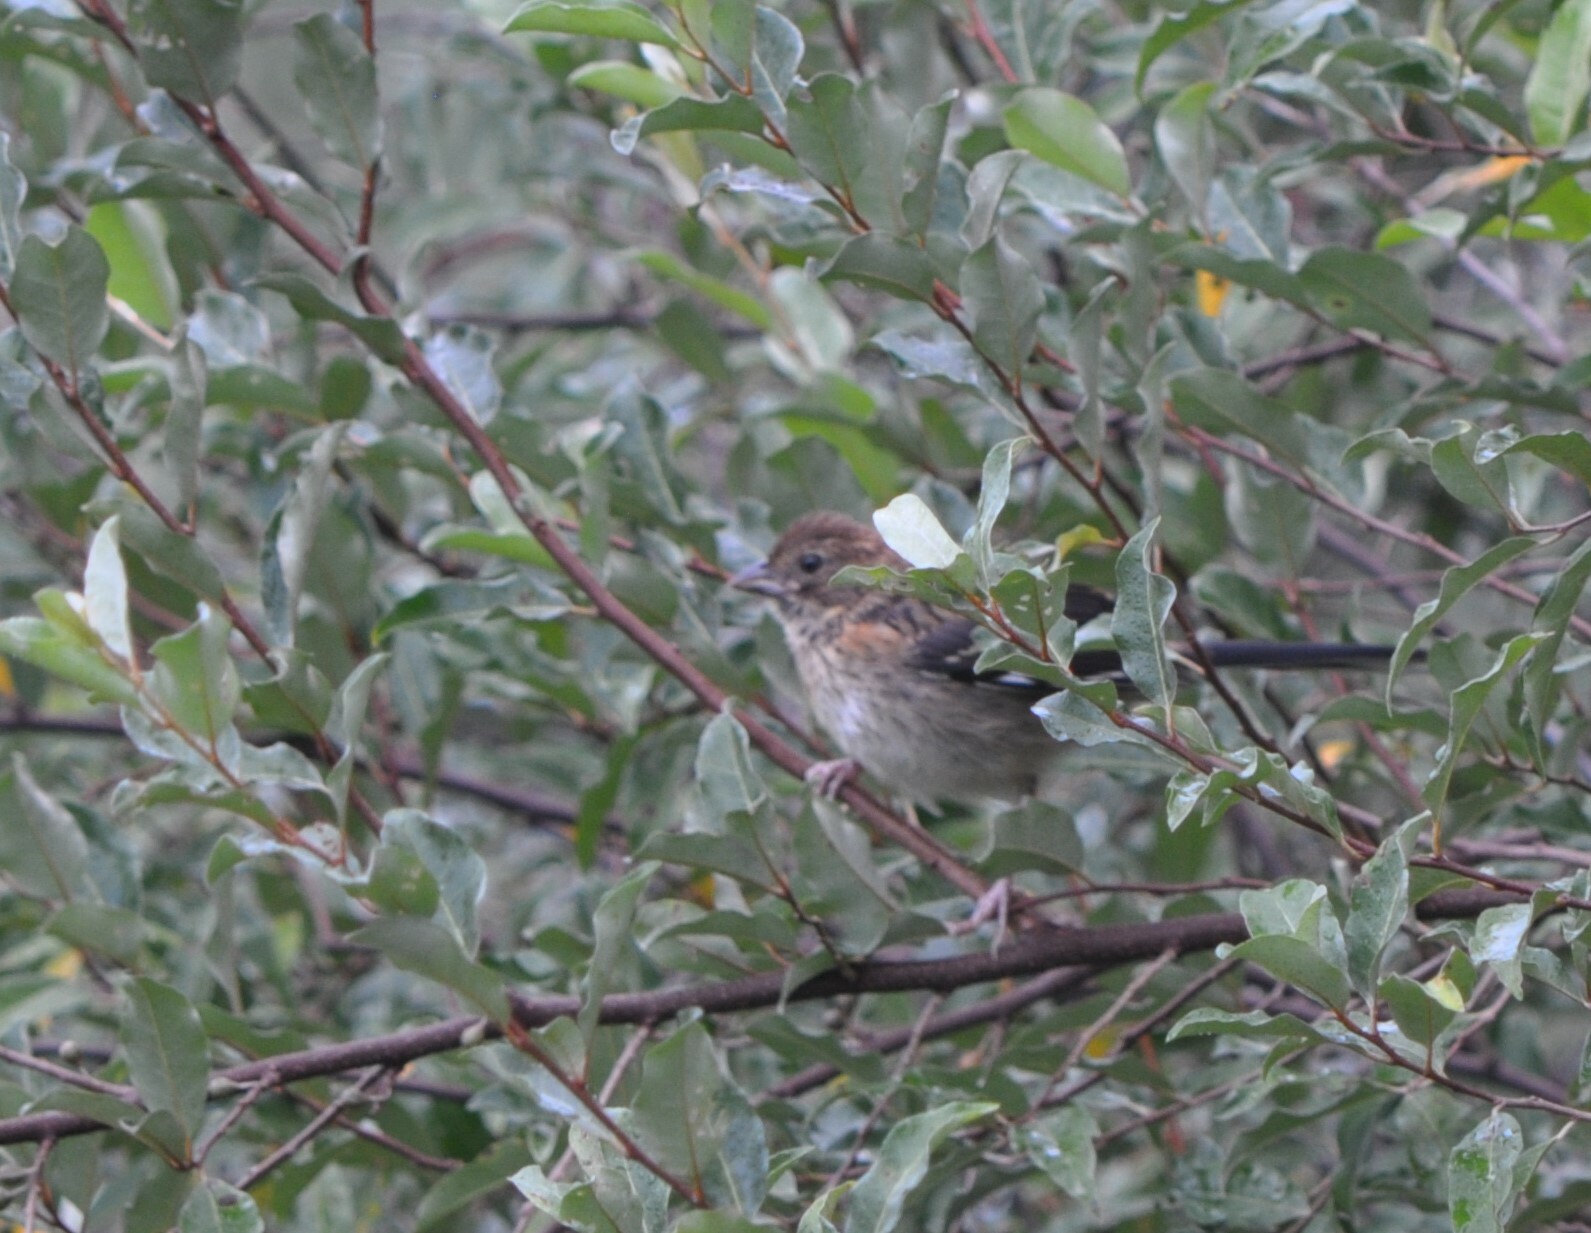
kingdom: Animalia
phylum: Chordata
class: Aves
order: Passeriformes
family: Passerellidae
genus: Pipilo
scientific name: Pipilo erythrophthalmus
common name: Eastern towhee
